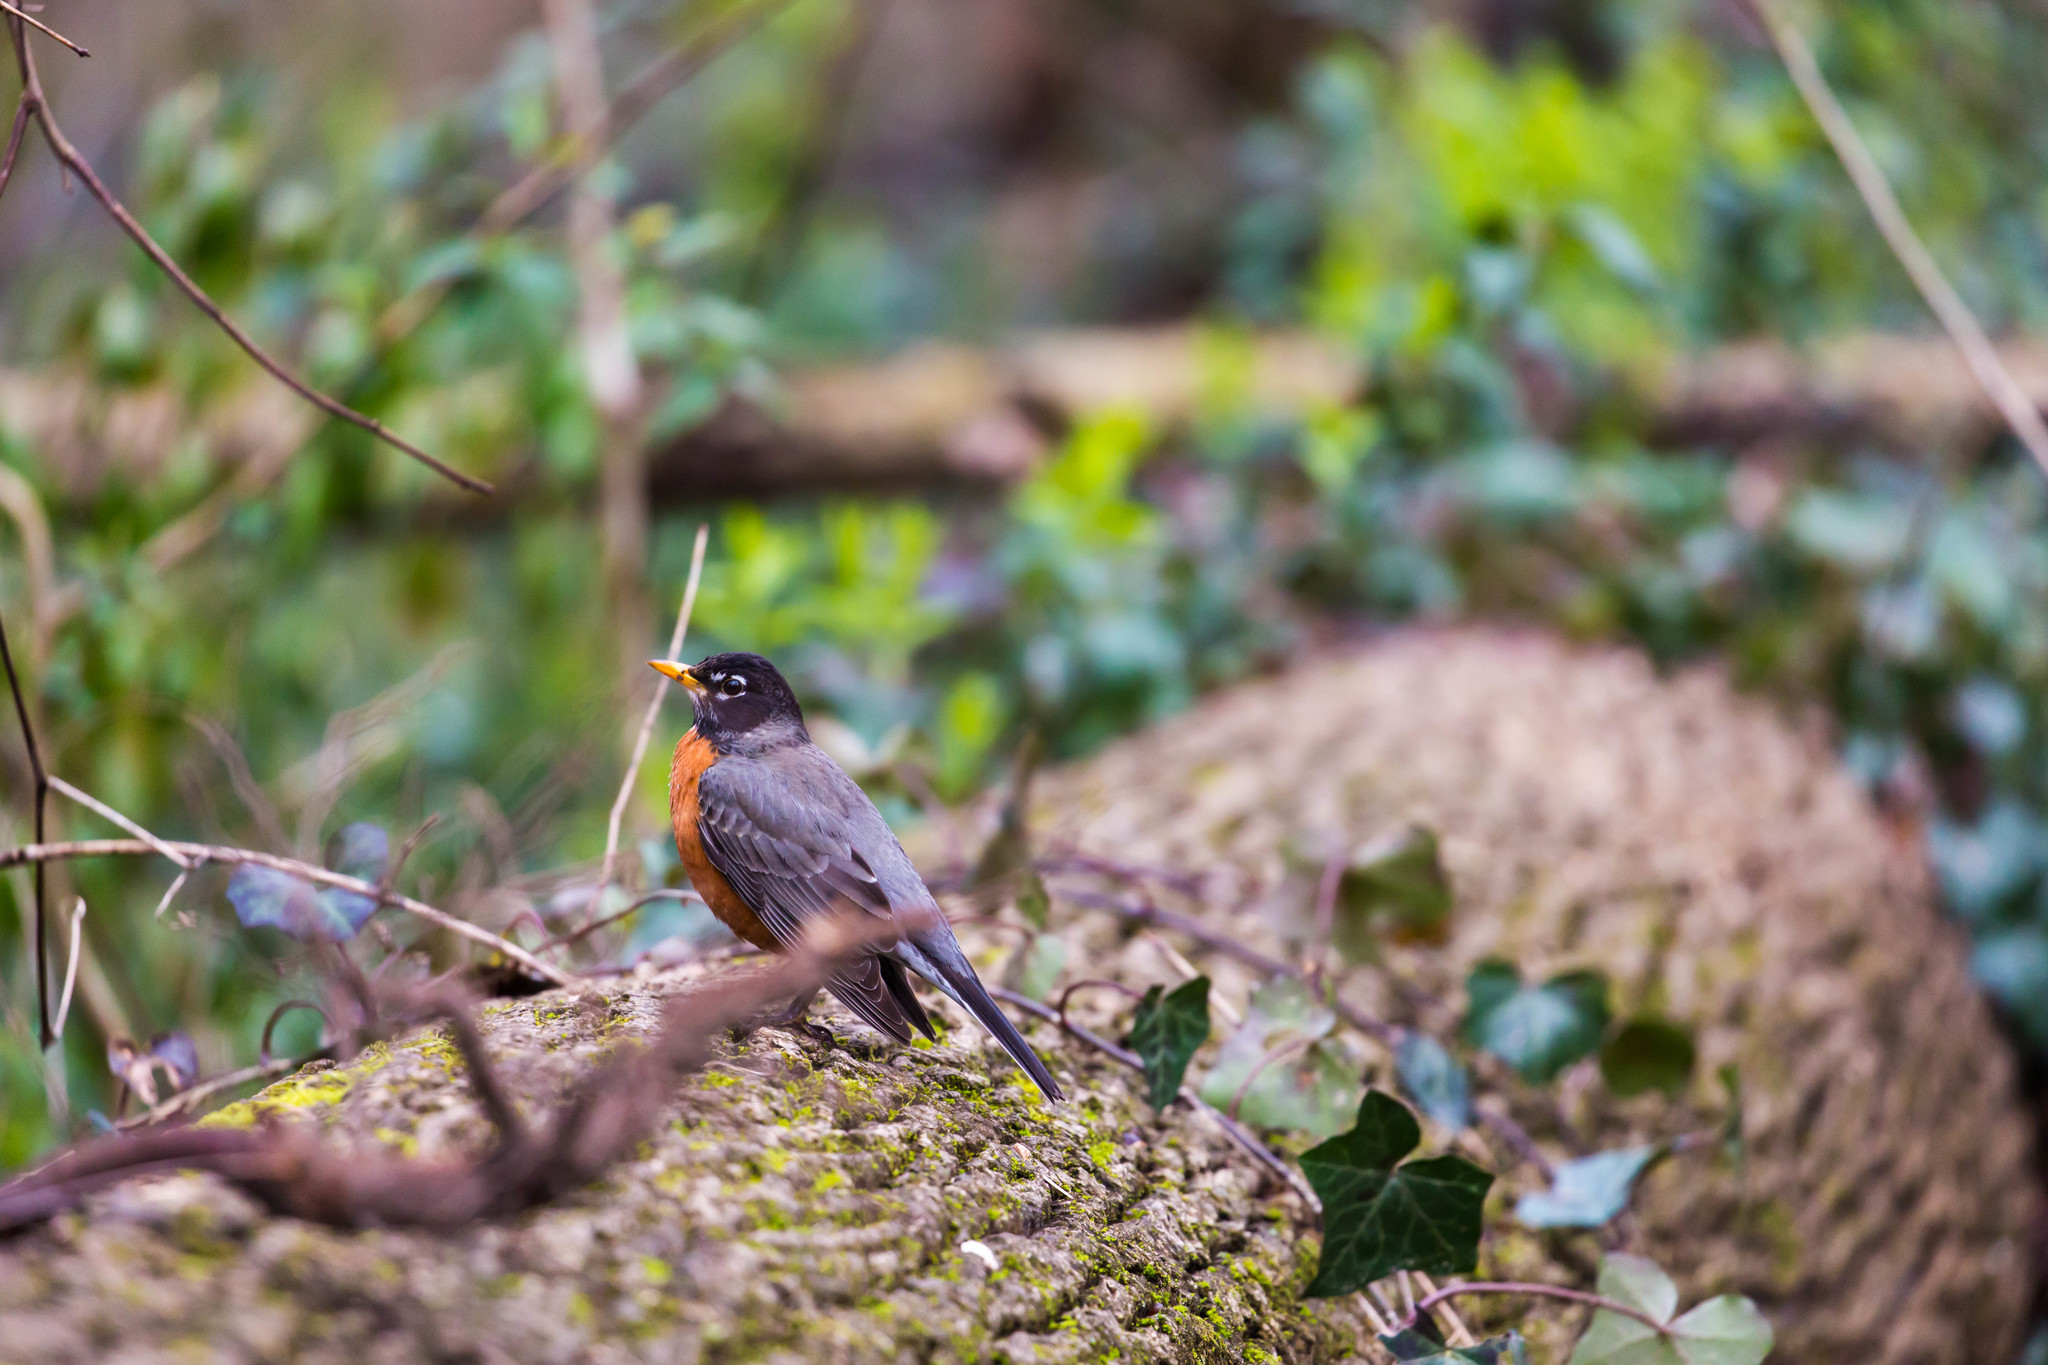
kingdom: Animalia
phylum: Chordata
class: Aves
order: Passeriformes
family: Turdidae
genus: Turdus
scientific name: Turdus migratorius
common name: American robin
